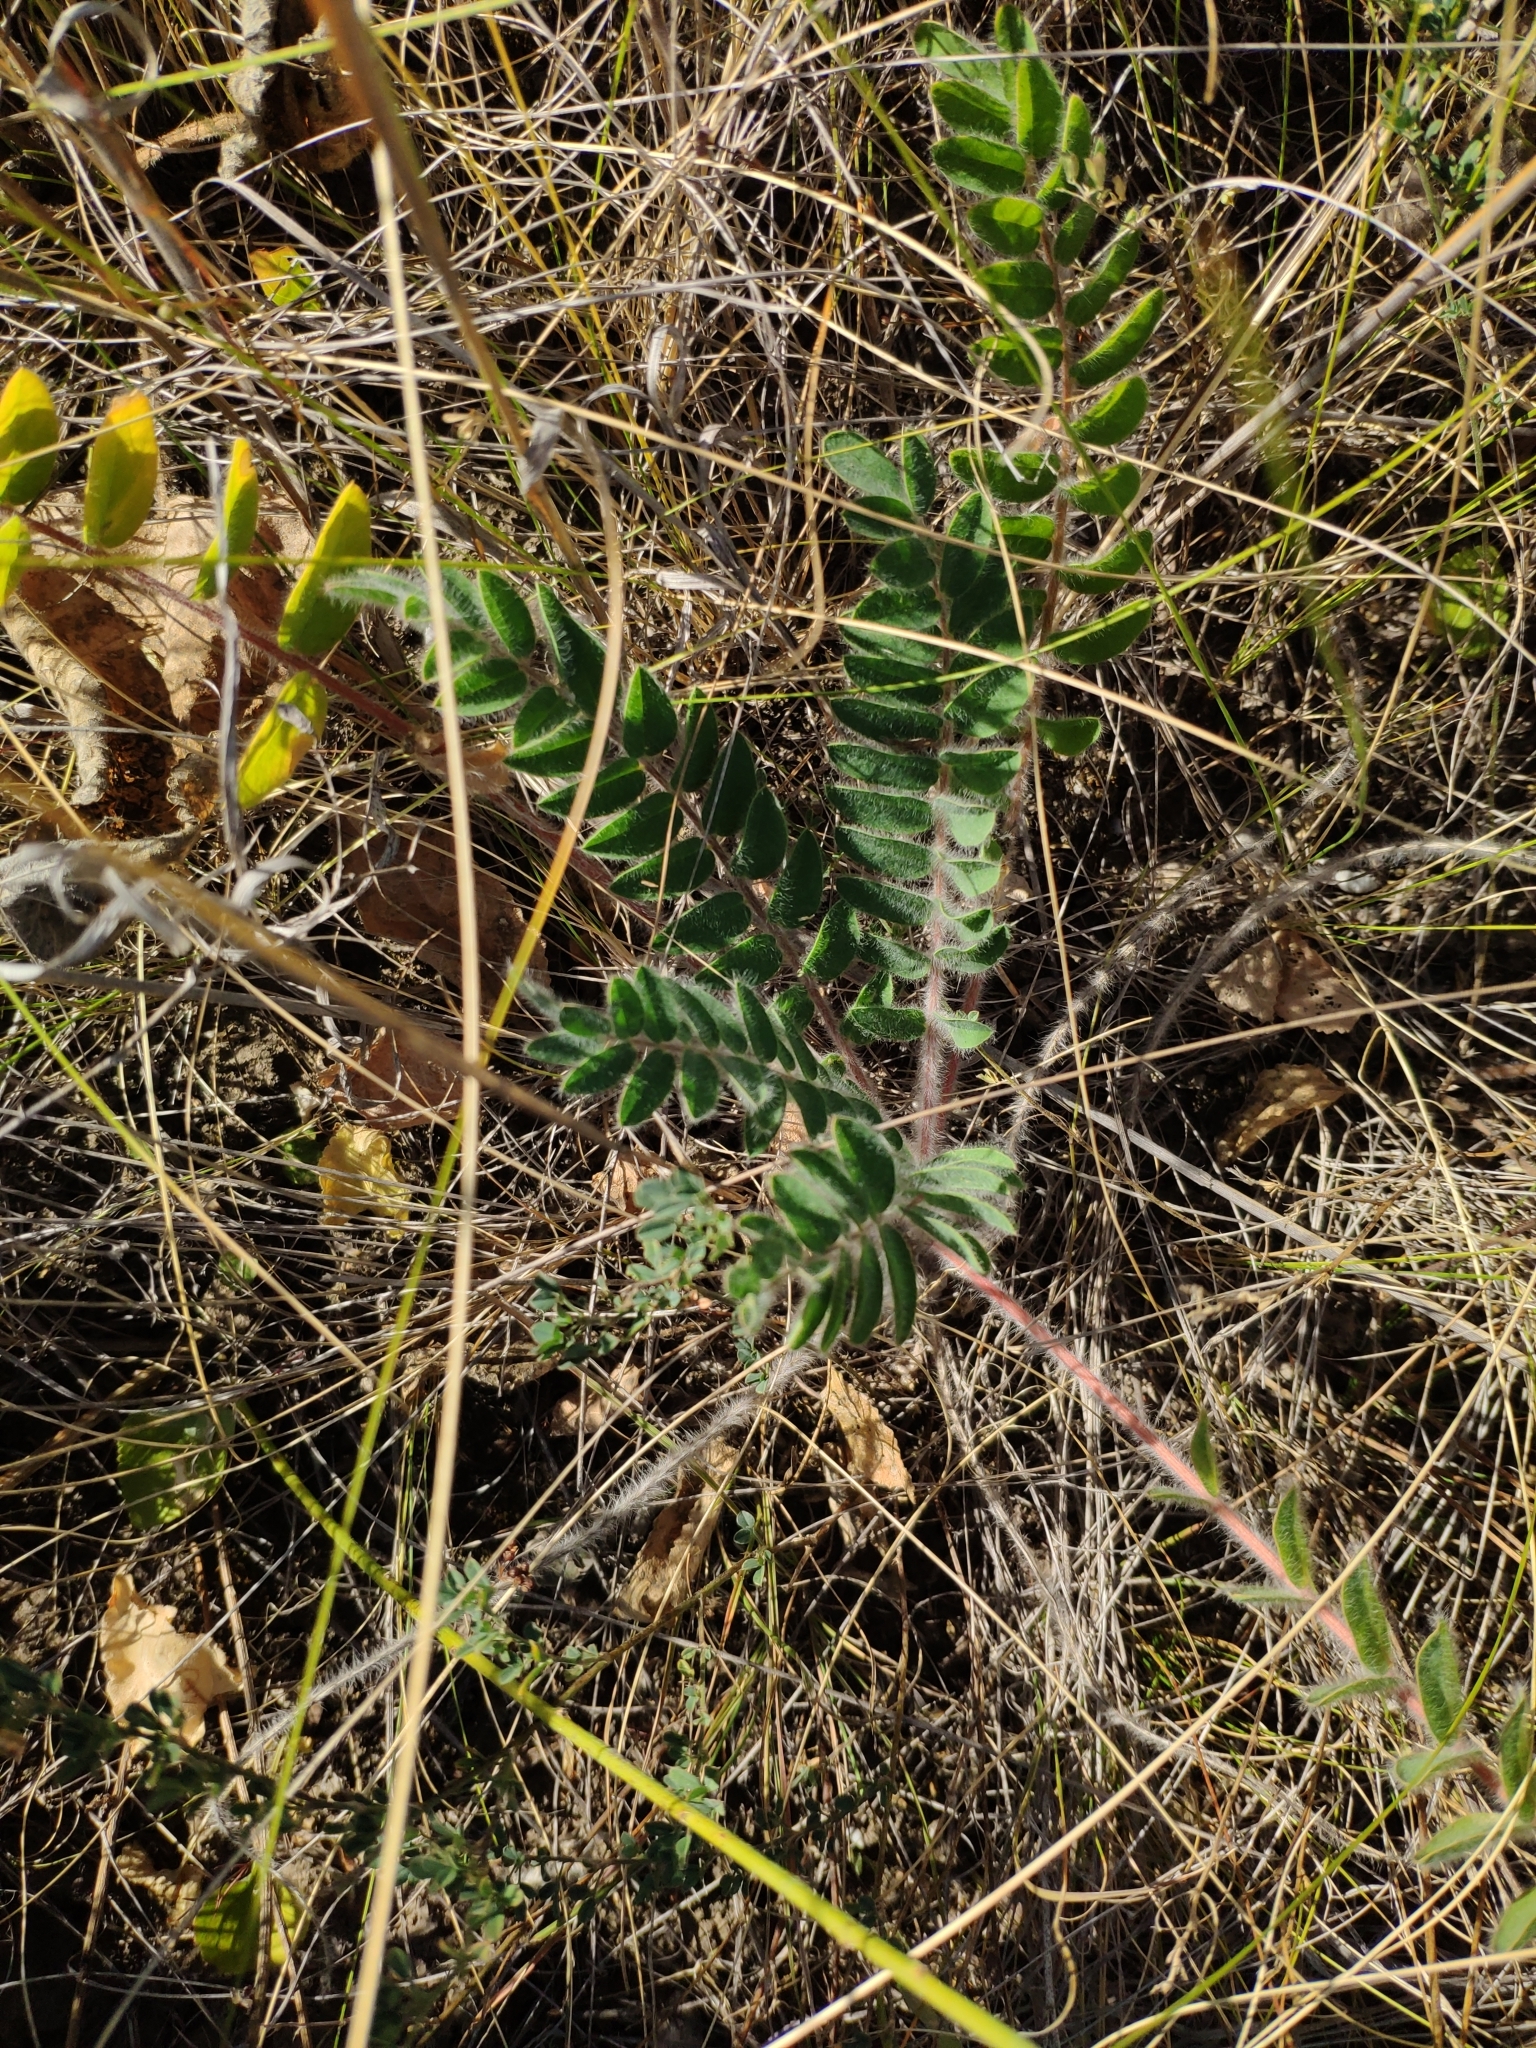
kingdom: Plantae
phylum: Tracheophyta
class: Magnoliopsida
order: Fabales
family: Fabaceae
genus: Astragalus
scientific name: Astragalus dasyanthus
